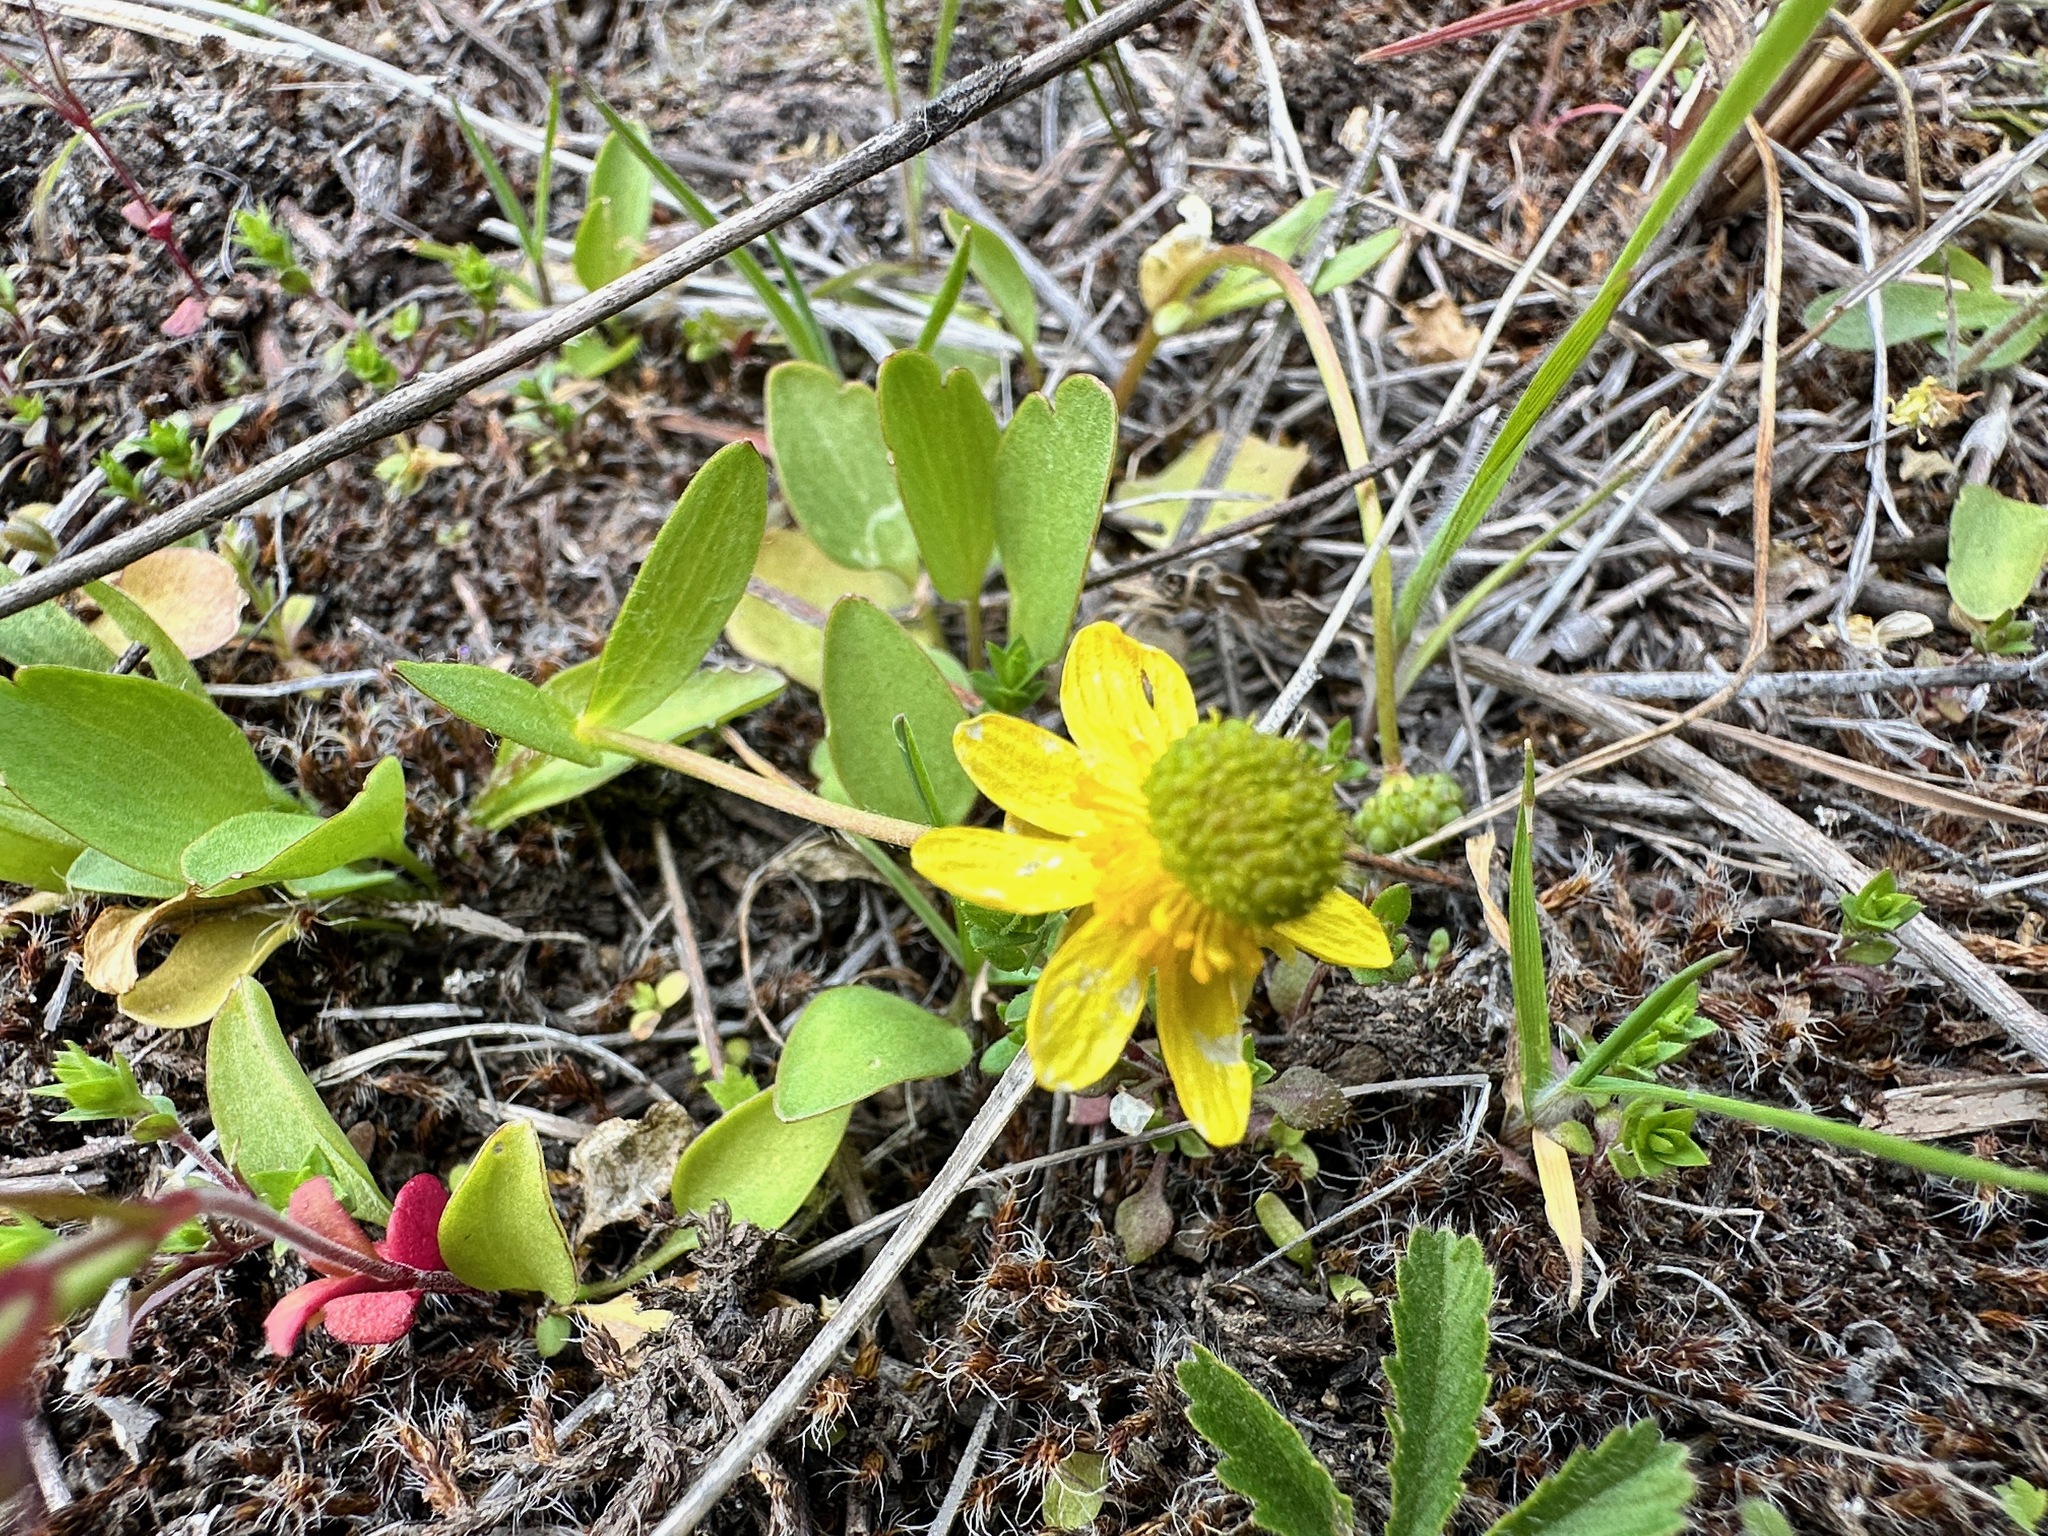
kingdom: Plantae
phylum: Tracheophyta
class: Magnoliopsida
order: Ranunculales
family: Ranunculaceae
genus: Ranunculus
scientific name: Ranunculus glaberrimus
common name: Sagebrush buttercup
